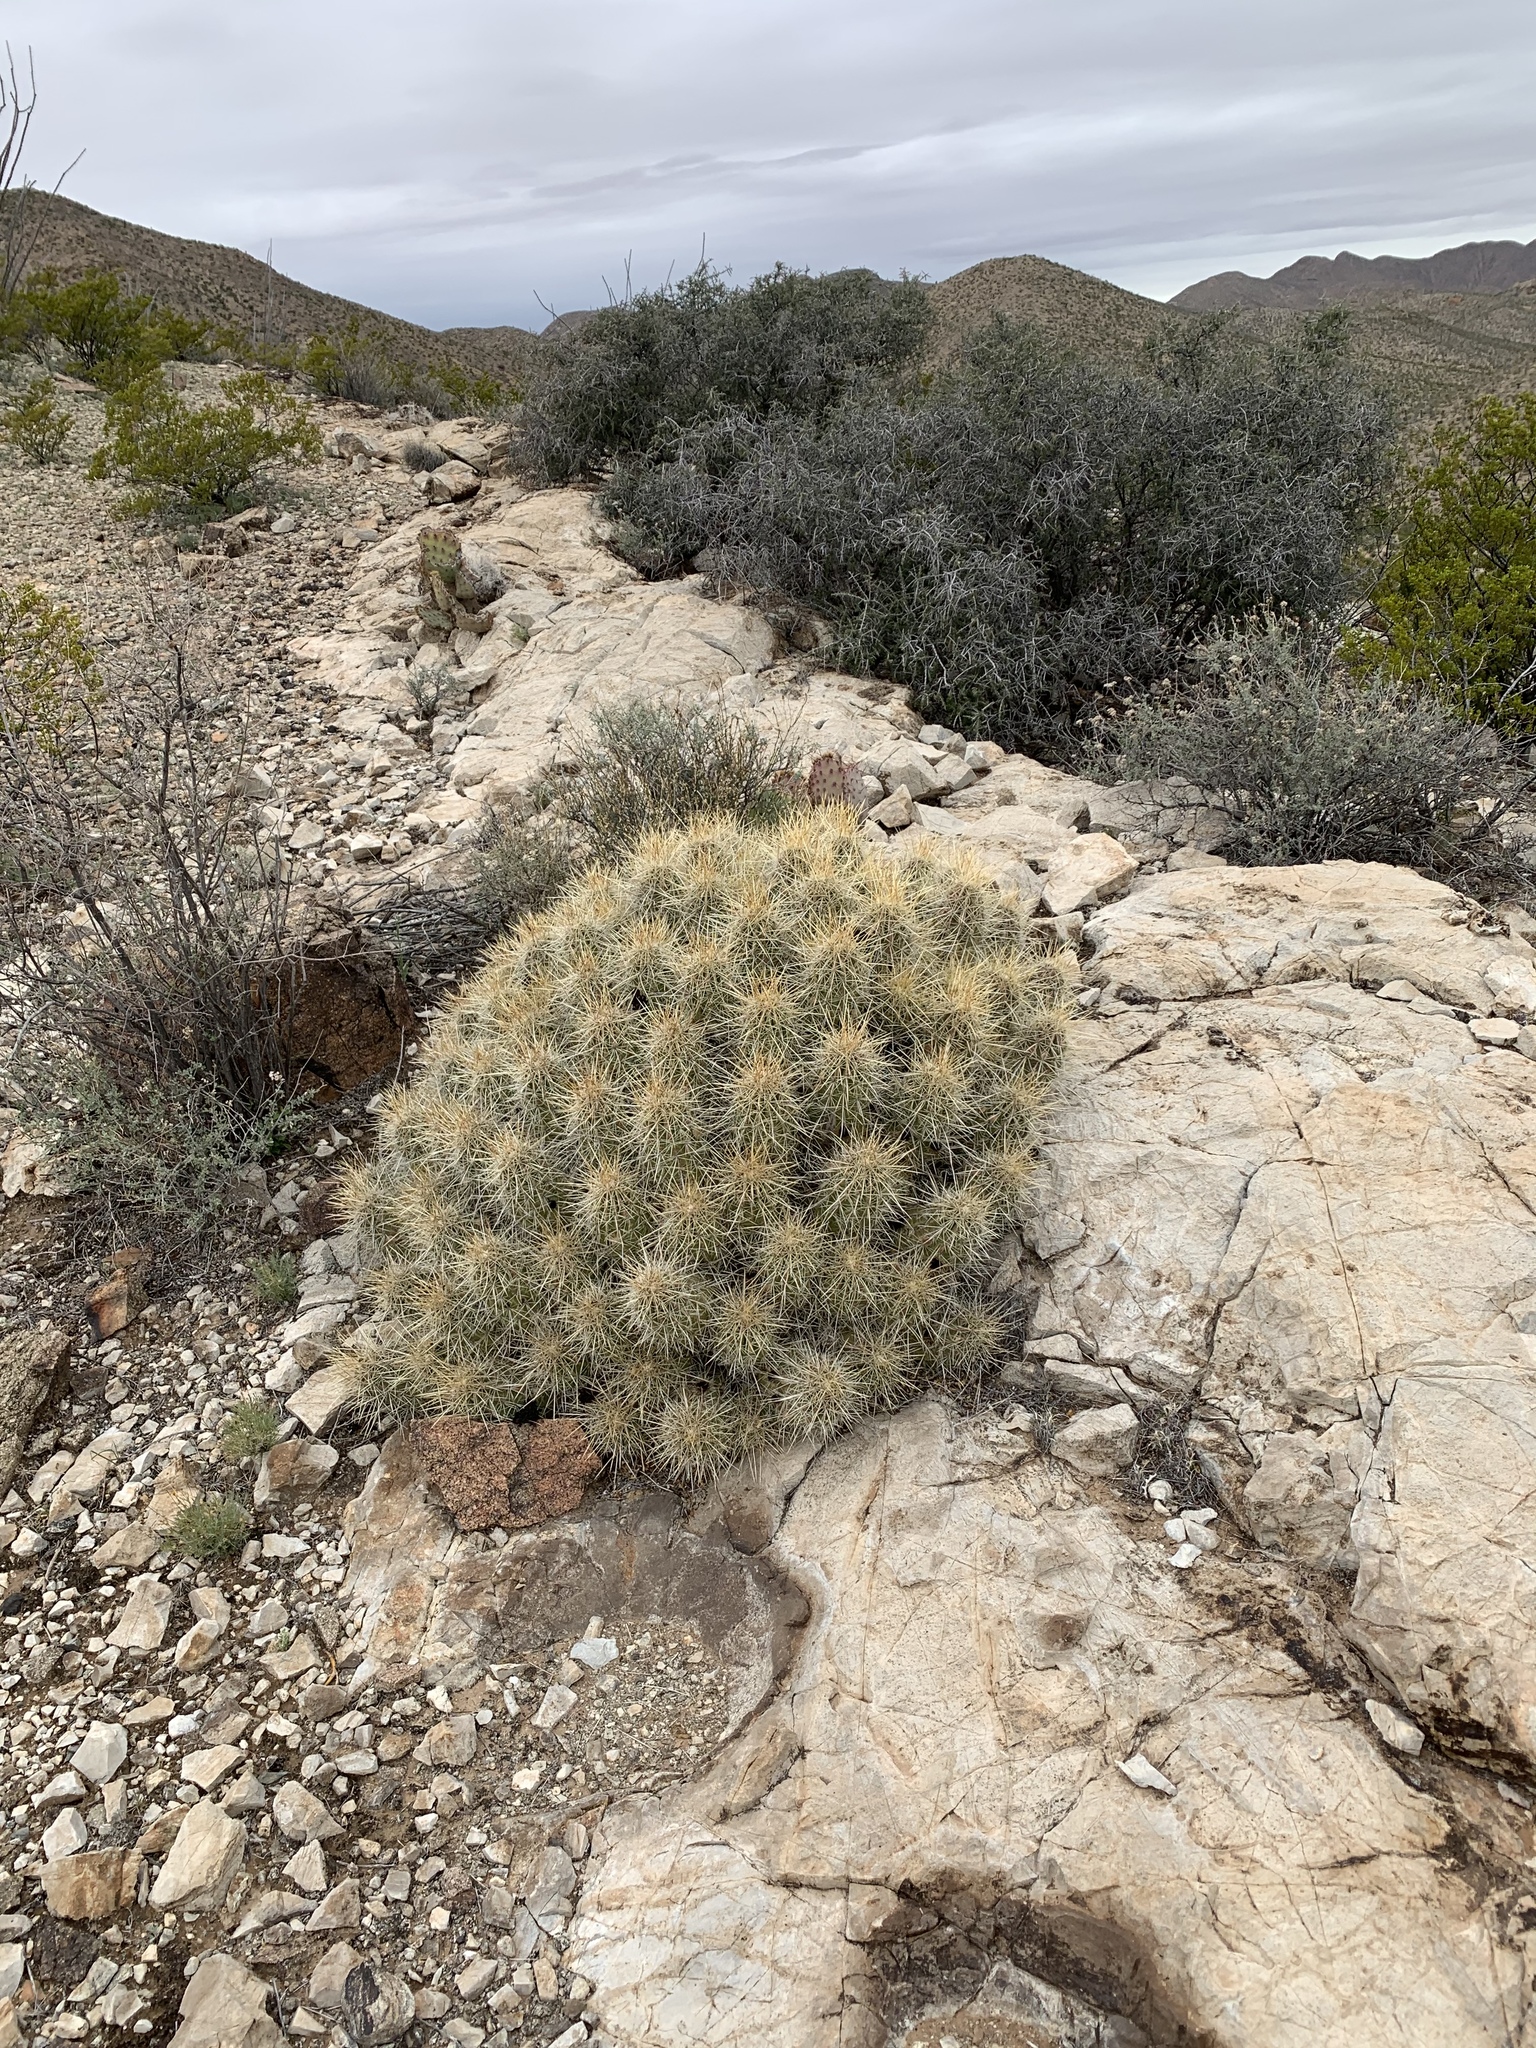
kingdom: Plantae
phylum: Tracheophyta
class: Magnoliopsida
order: Caryophyllales
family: Cactaceae
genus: Echinocereus
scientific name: Echinocereus stramineus
